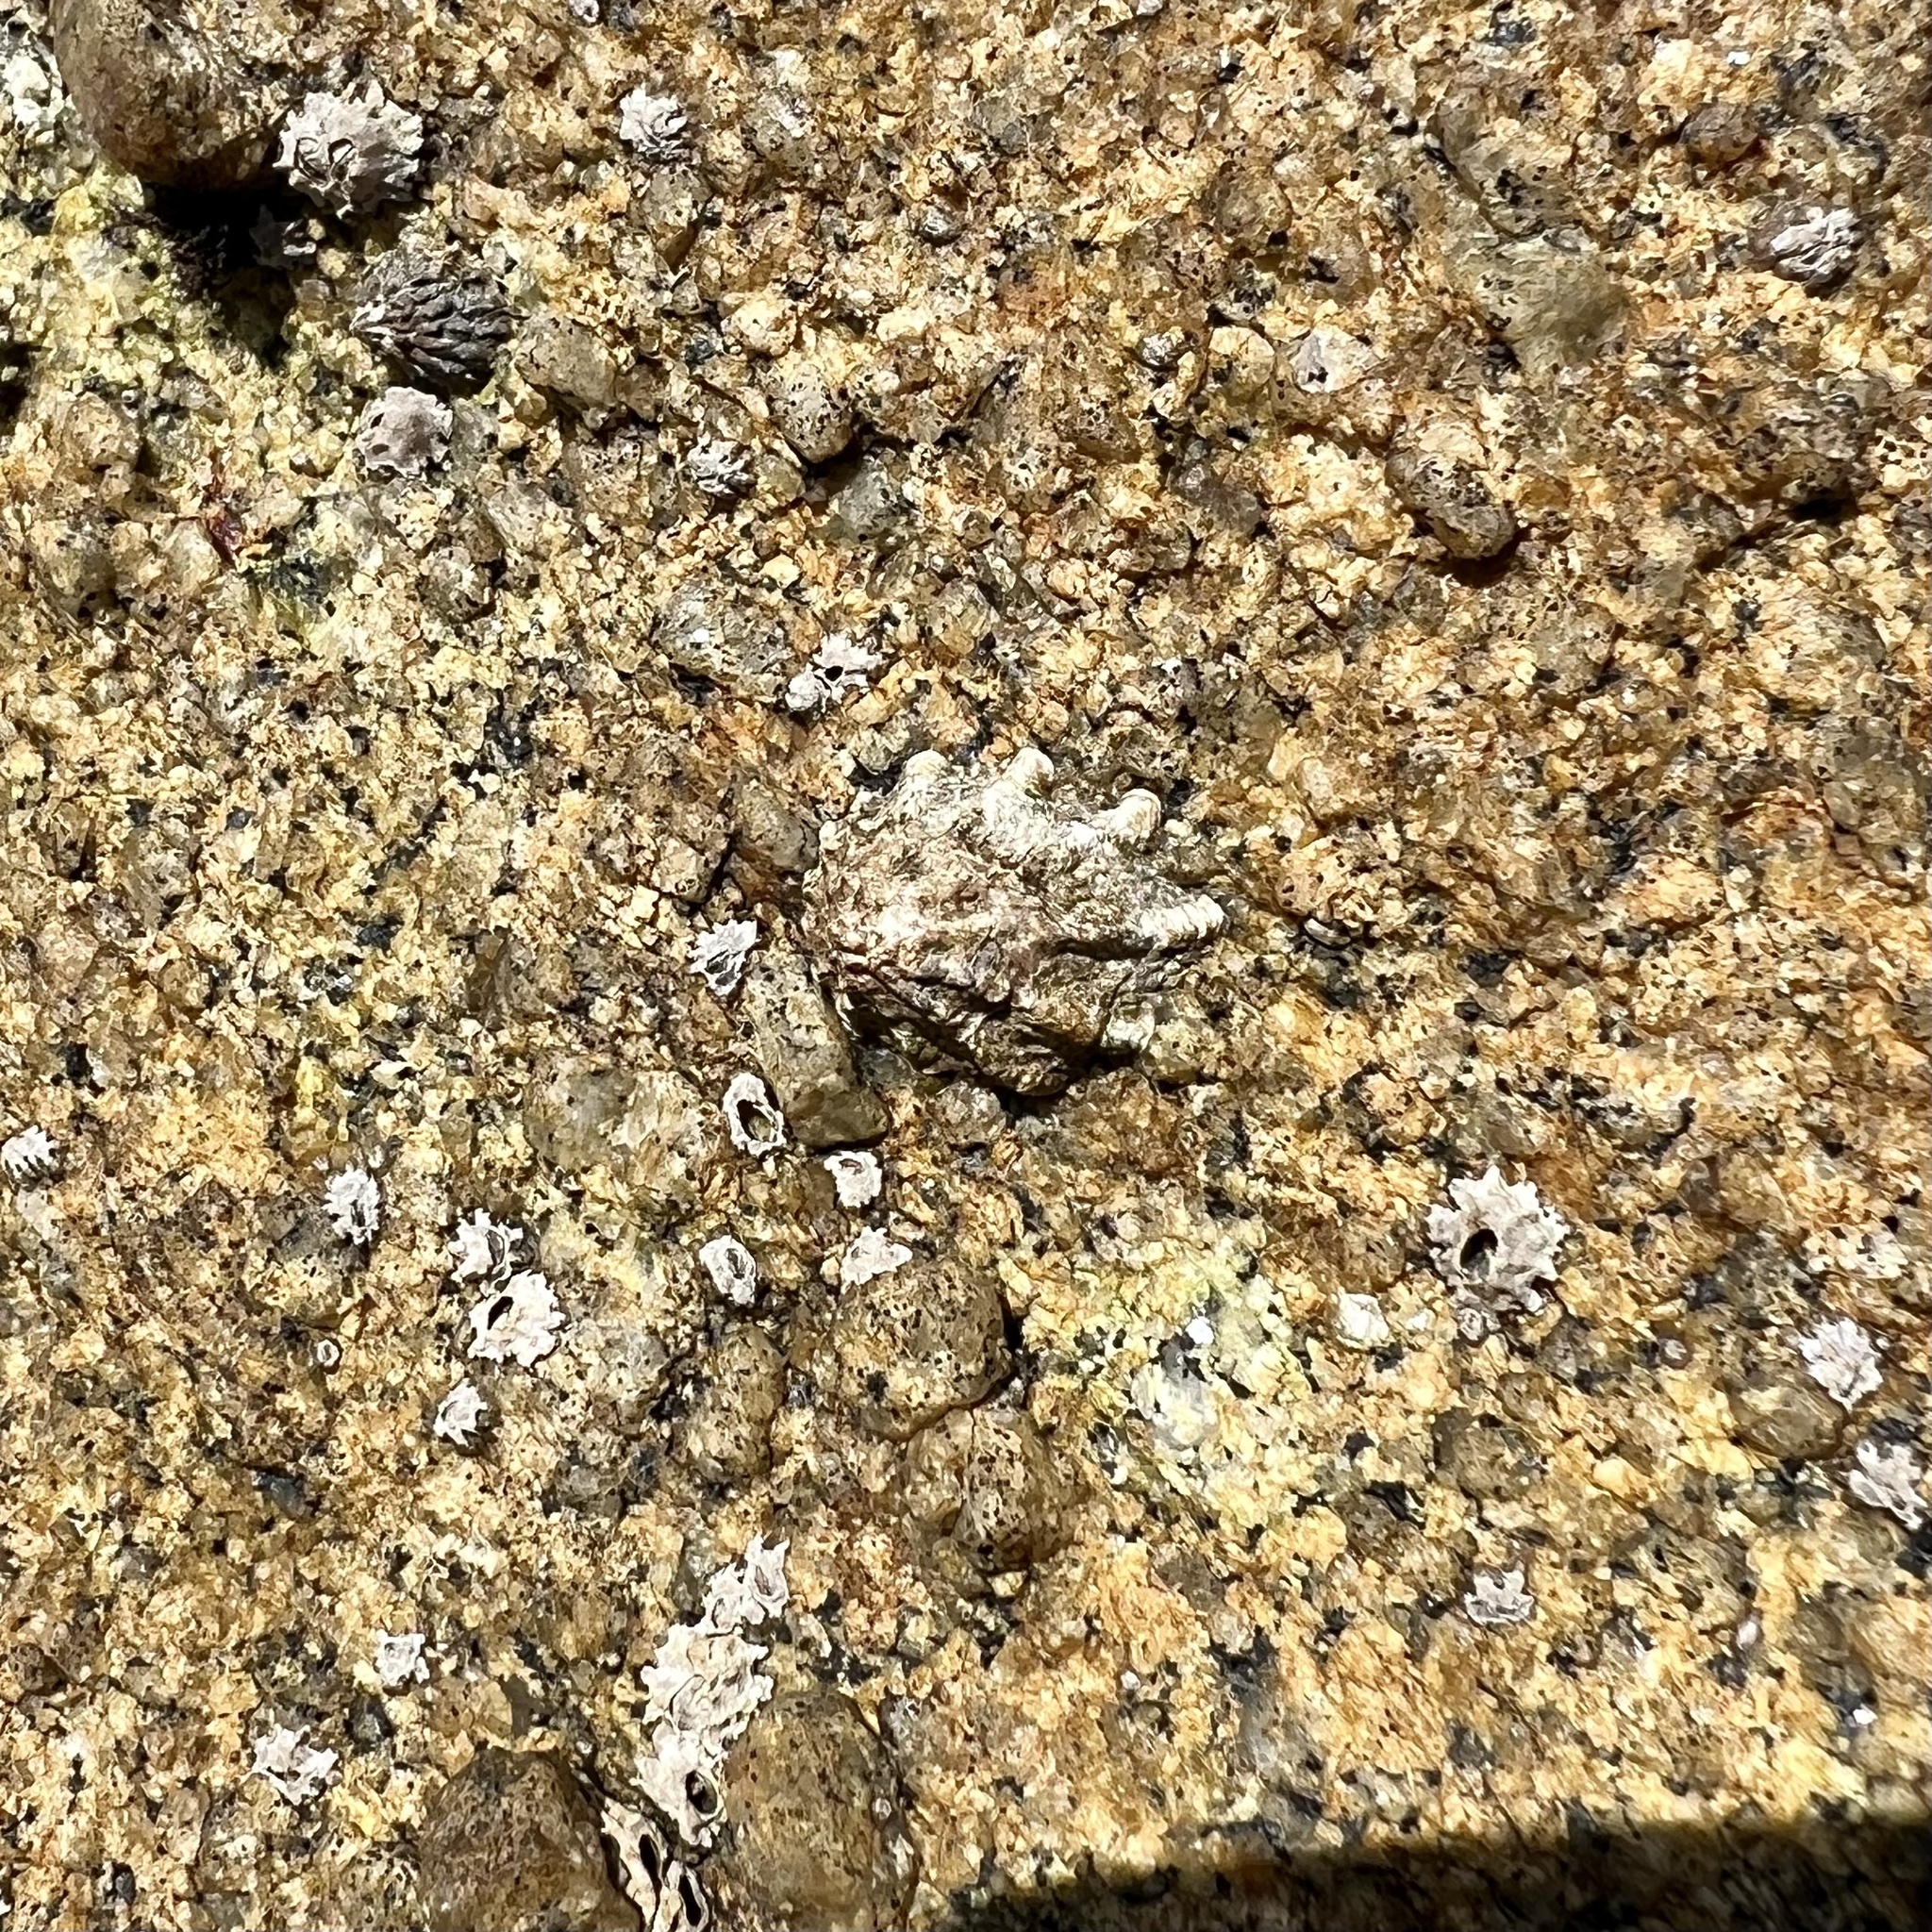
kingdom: Animalia
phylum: Mollusca
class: Gastropoda
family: Lottiidae
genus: Lottia
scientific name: Lottia scabra
